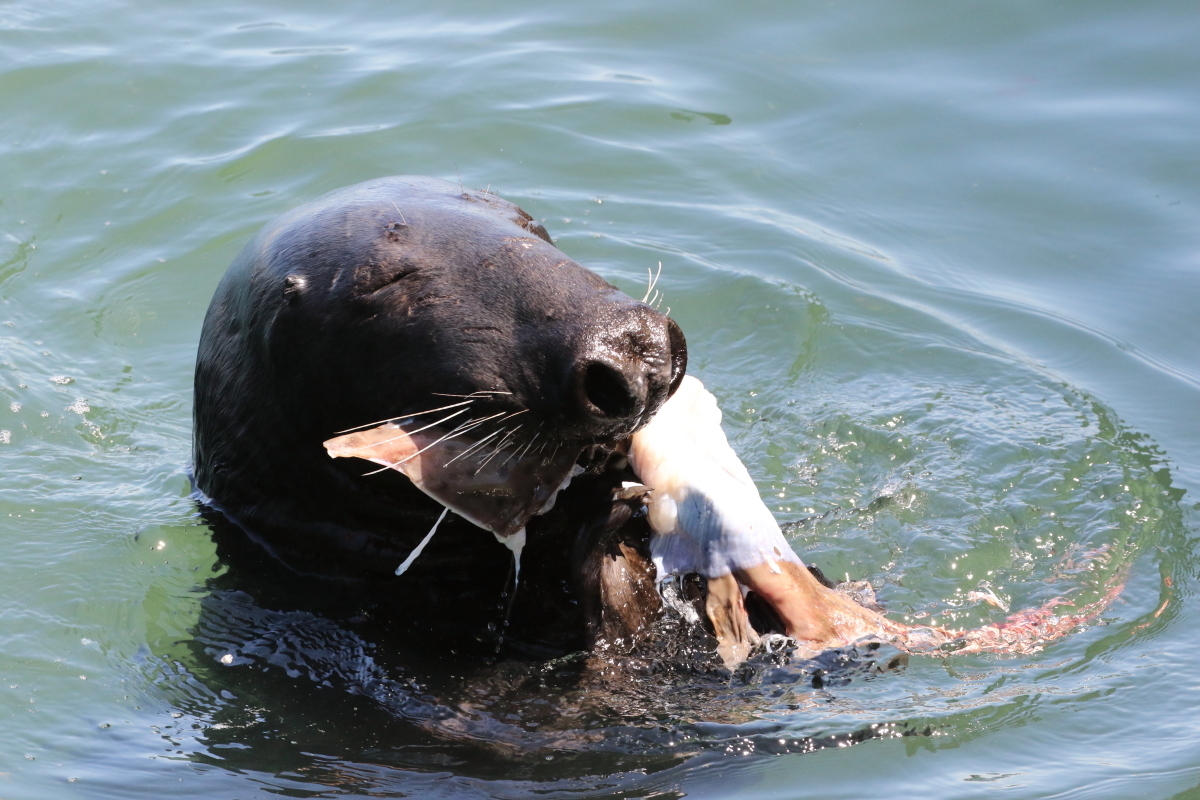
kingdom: Animalia
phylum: Chordata
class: Mammalia
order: Carnivora
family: Phocidae
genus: Halichoerus
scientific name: Halichoerus grypus
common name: Grey seal
